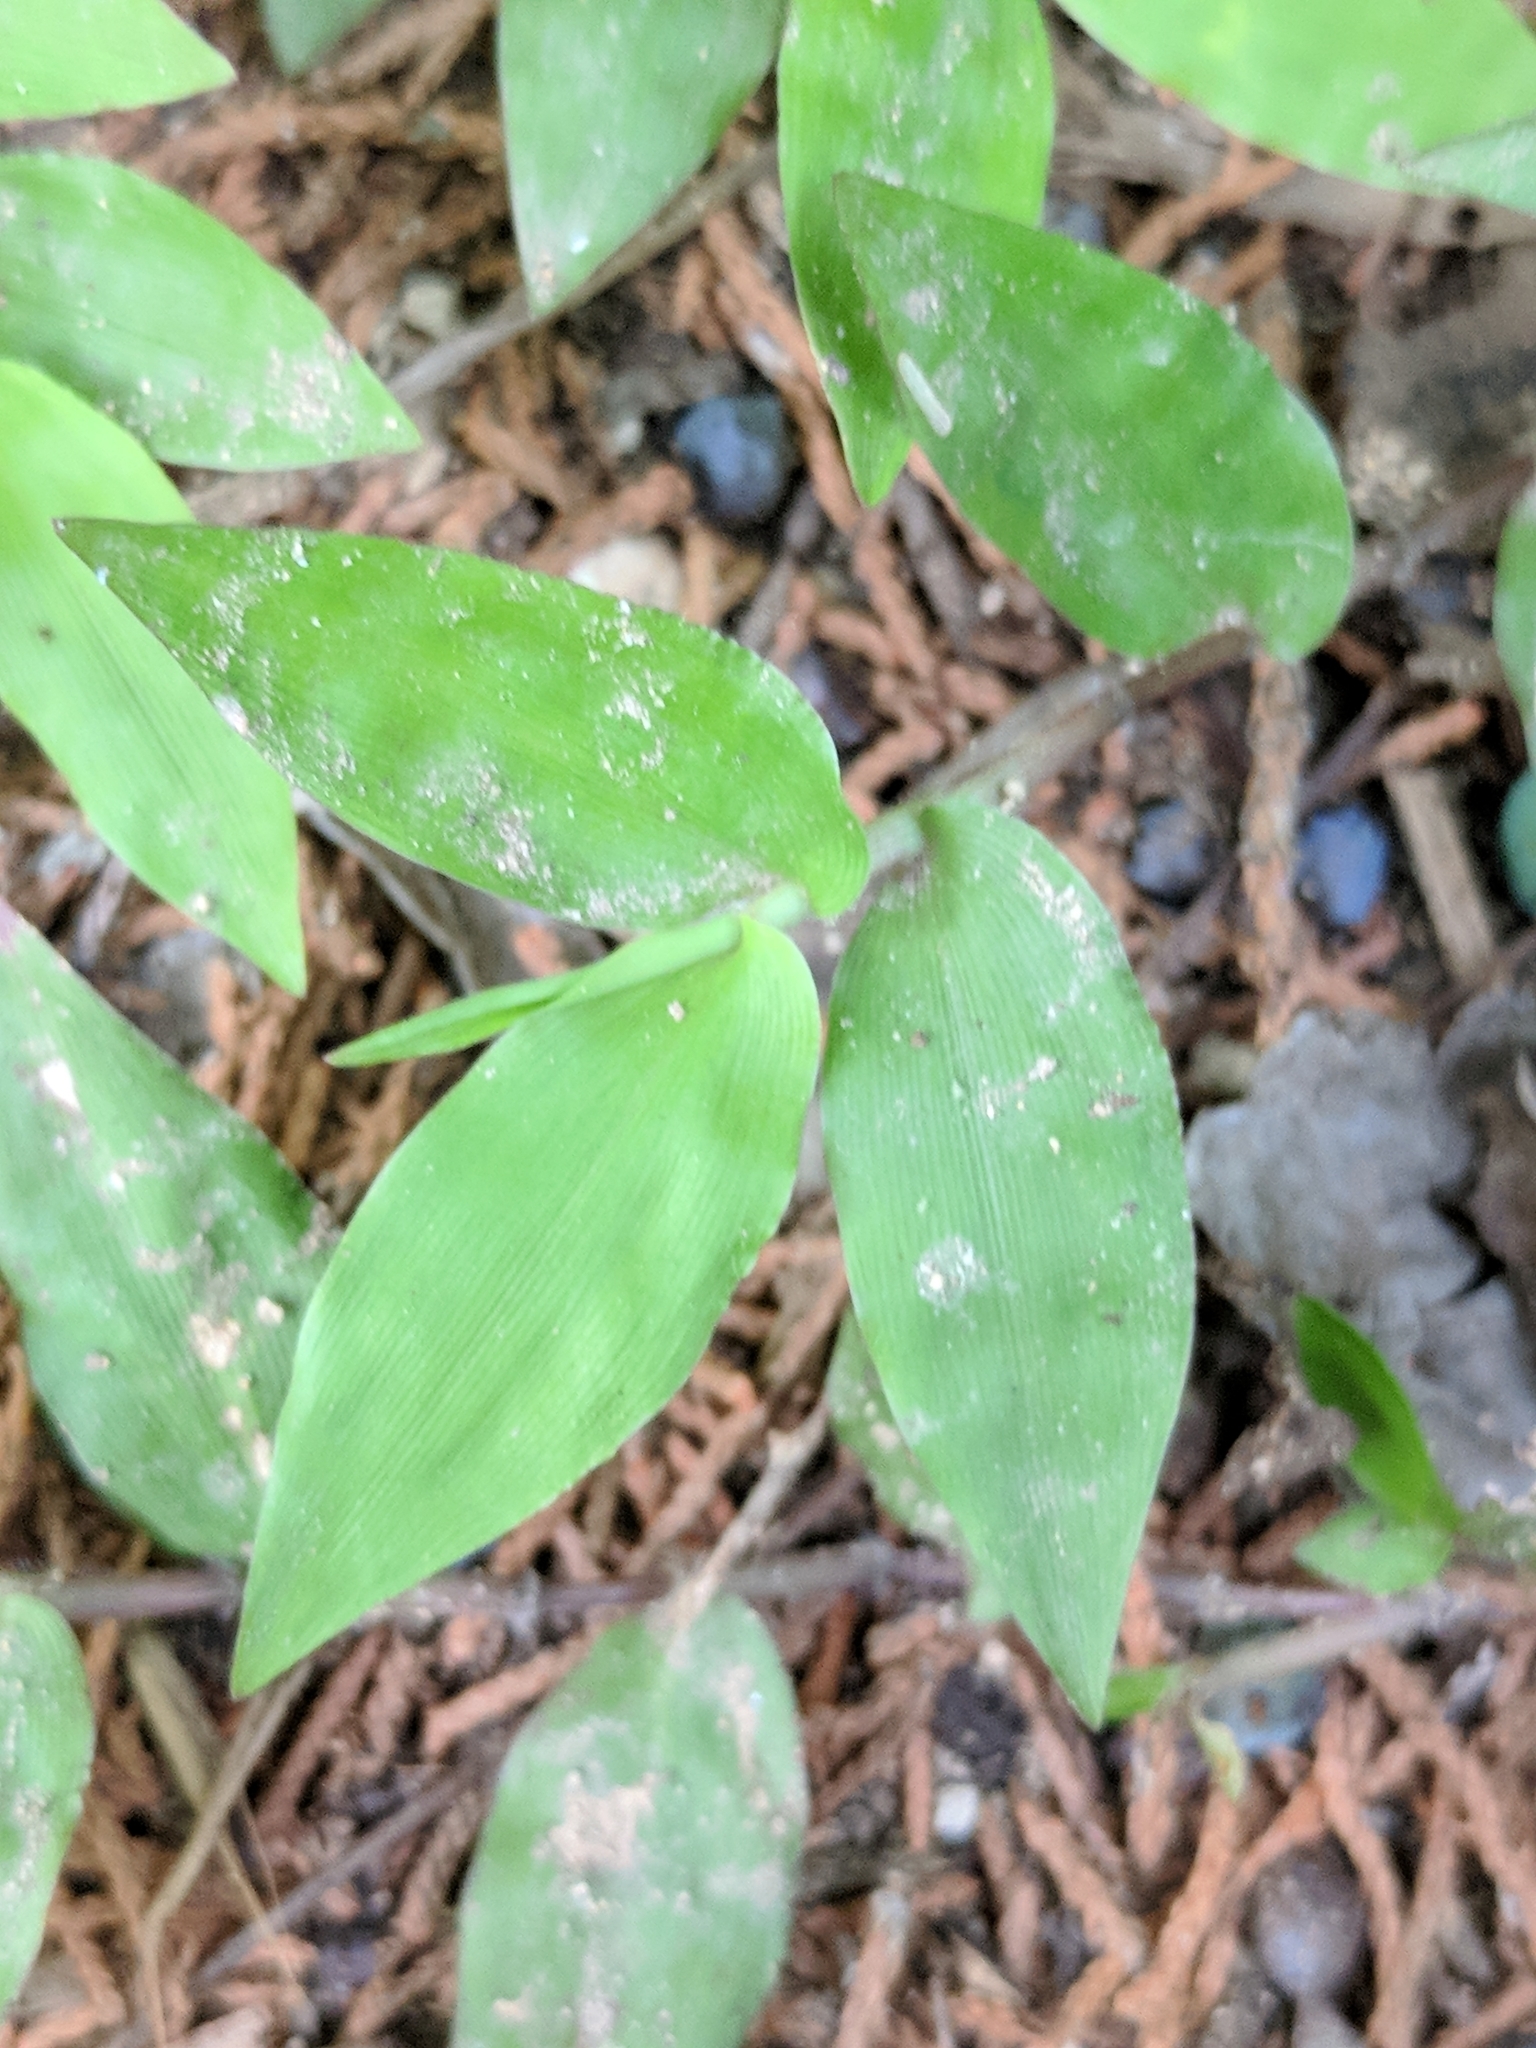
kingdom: Plantae
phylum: Tracheophyta
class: Liliopsida
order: Poales
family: Poaceae
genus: Oplismenus
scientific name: Oplismenus hirtellus
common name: Basketgrass
